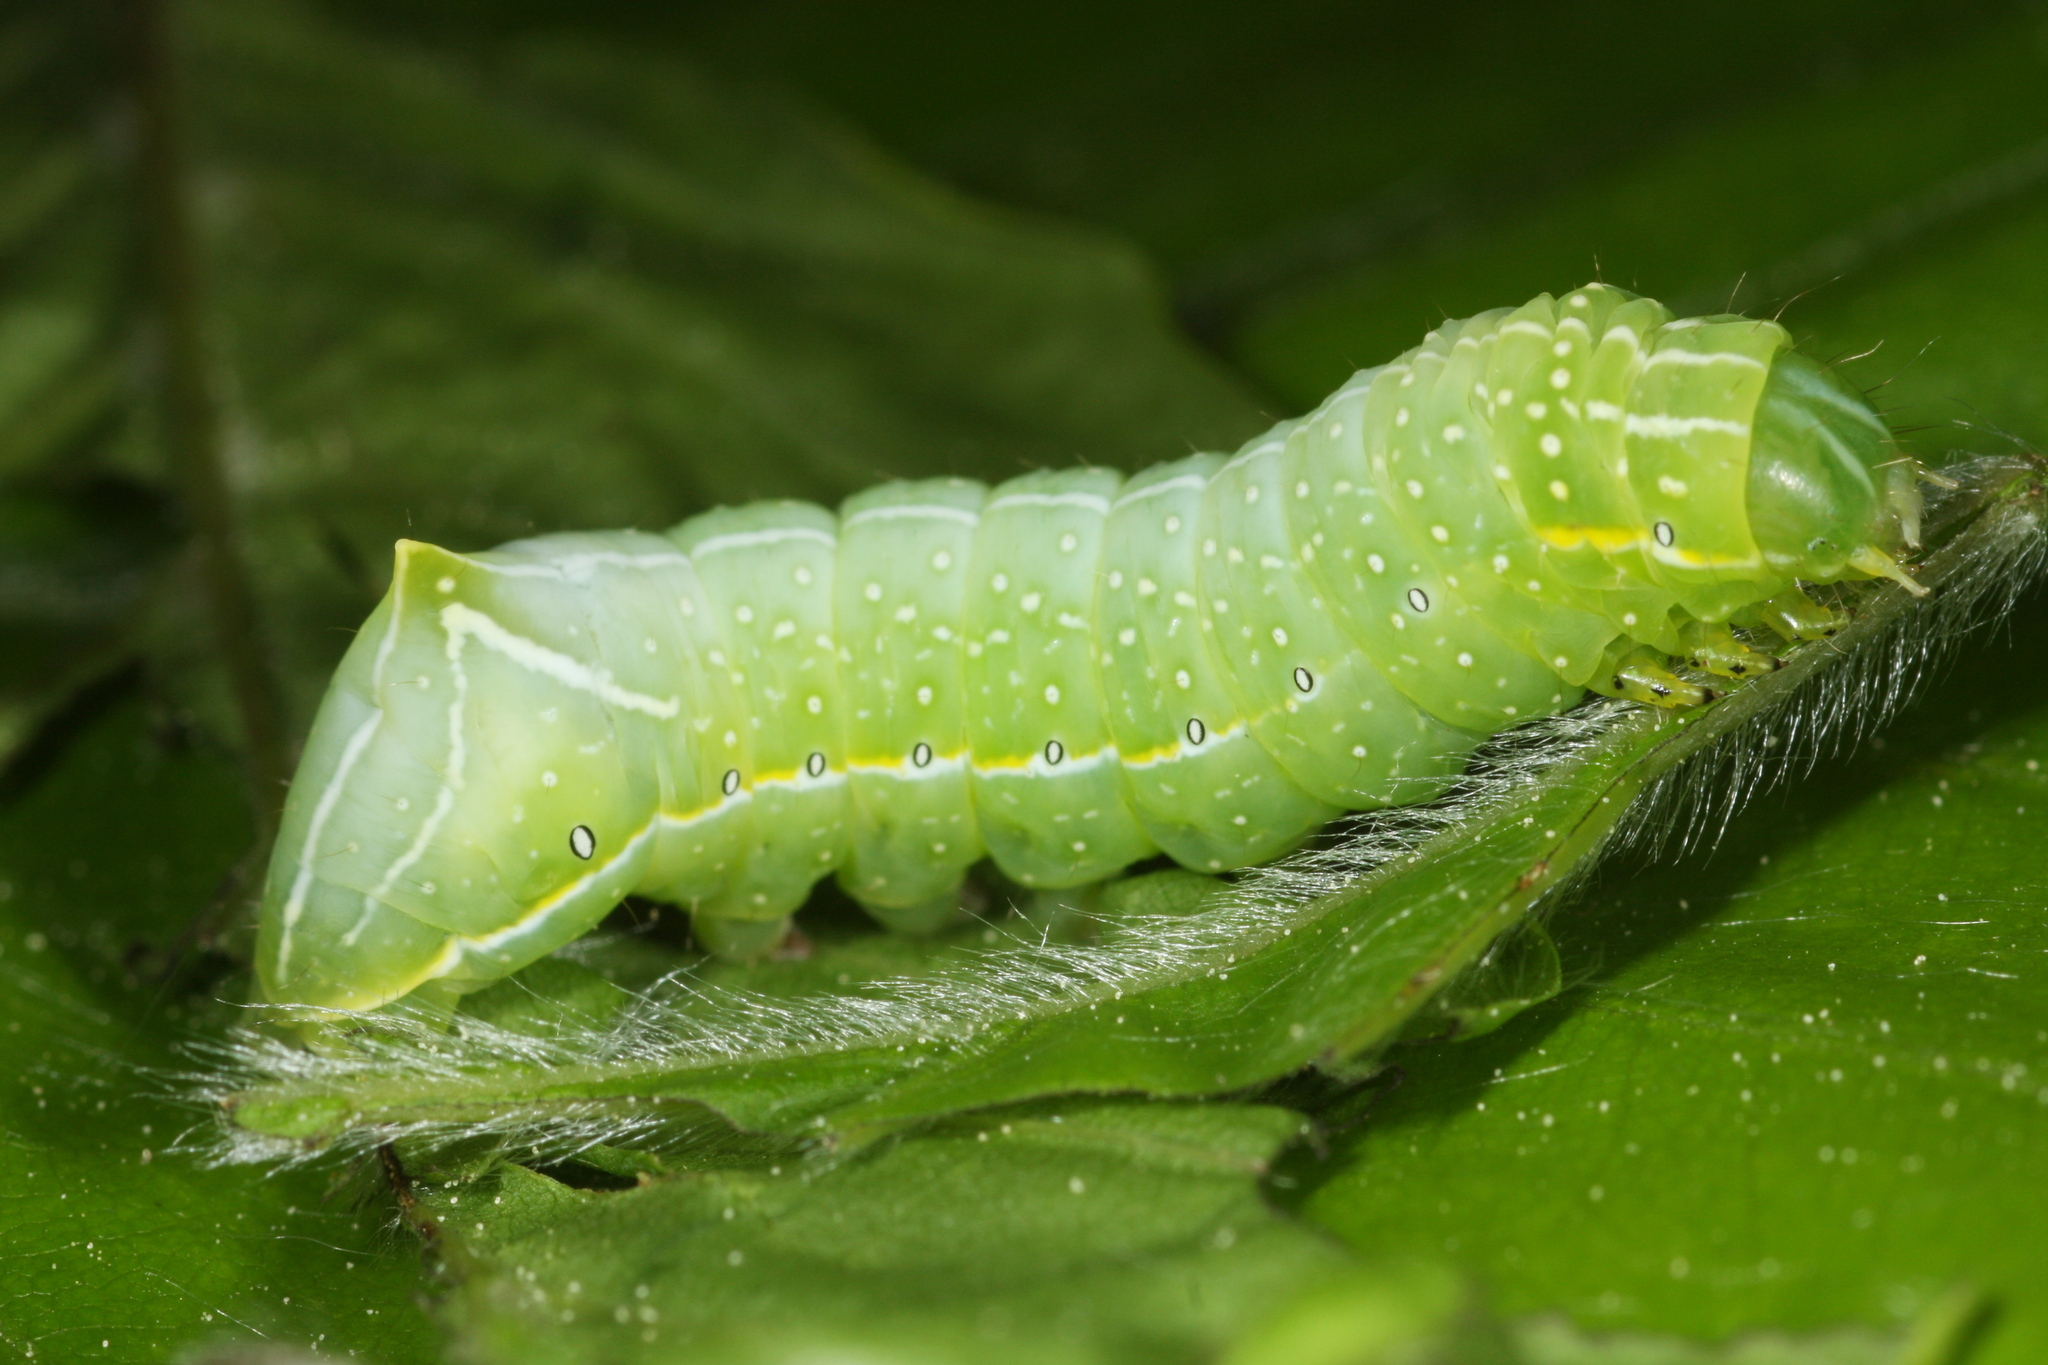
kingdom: Animalia
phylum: Arthropoda
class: Insecta
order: Lepidoptera
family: Noctuidae
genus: Amphipyra
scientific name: Amphipyra pyramidea
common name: Copper underwing
